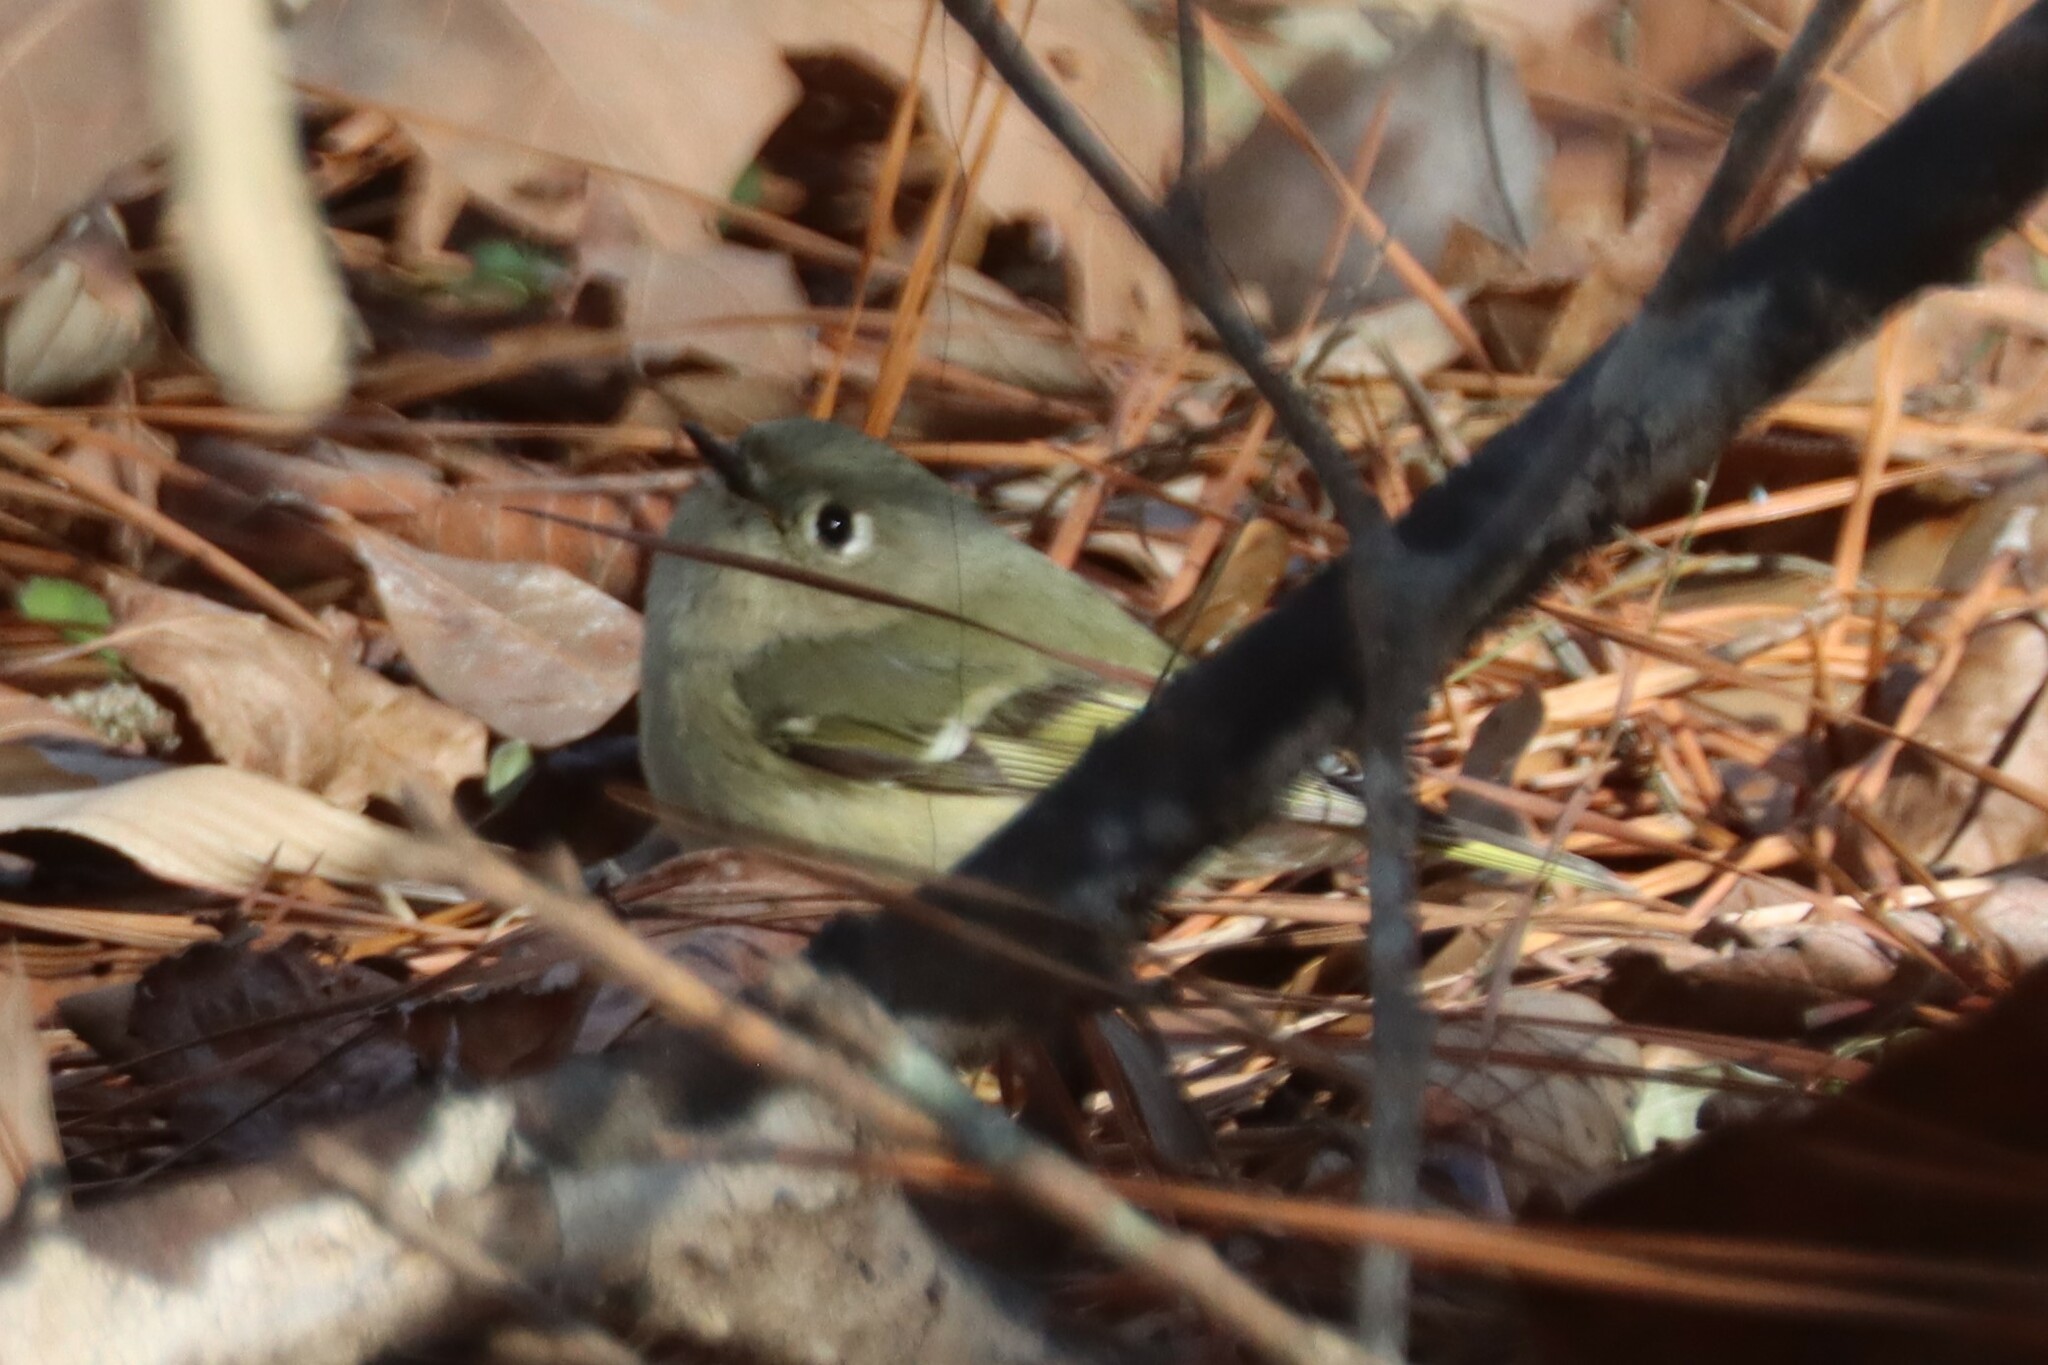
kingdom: Animalia
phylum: Chordata
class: Aves
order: Passeriformes
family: Regulidae
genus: Regulus
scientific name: Regulus calendula
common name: Ruby-crowned kinglet
